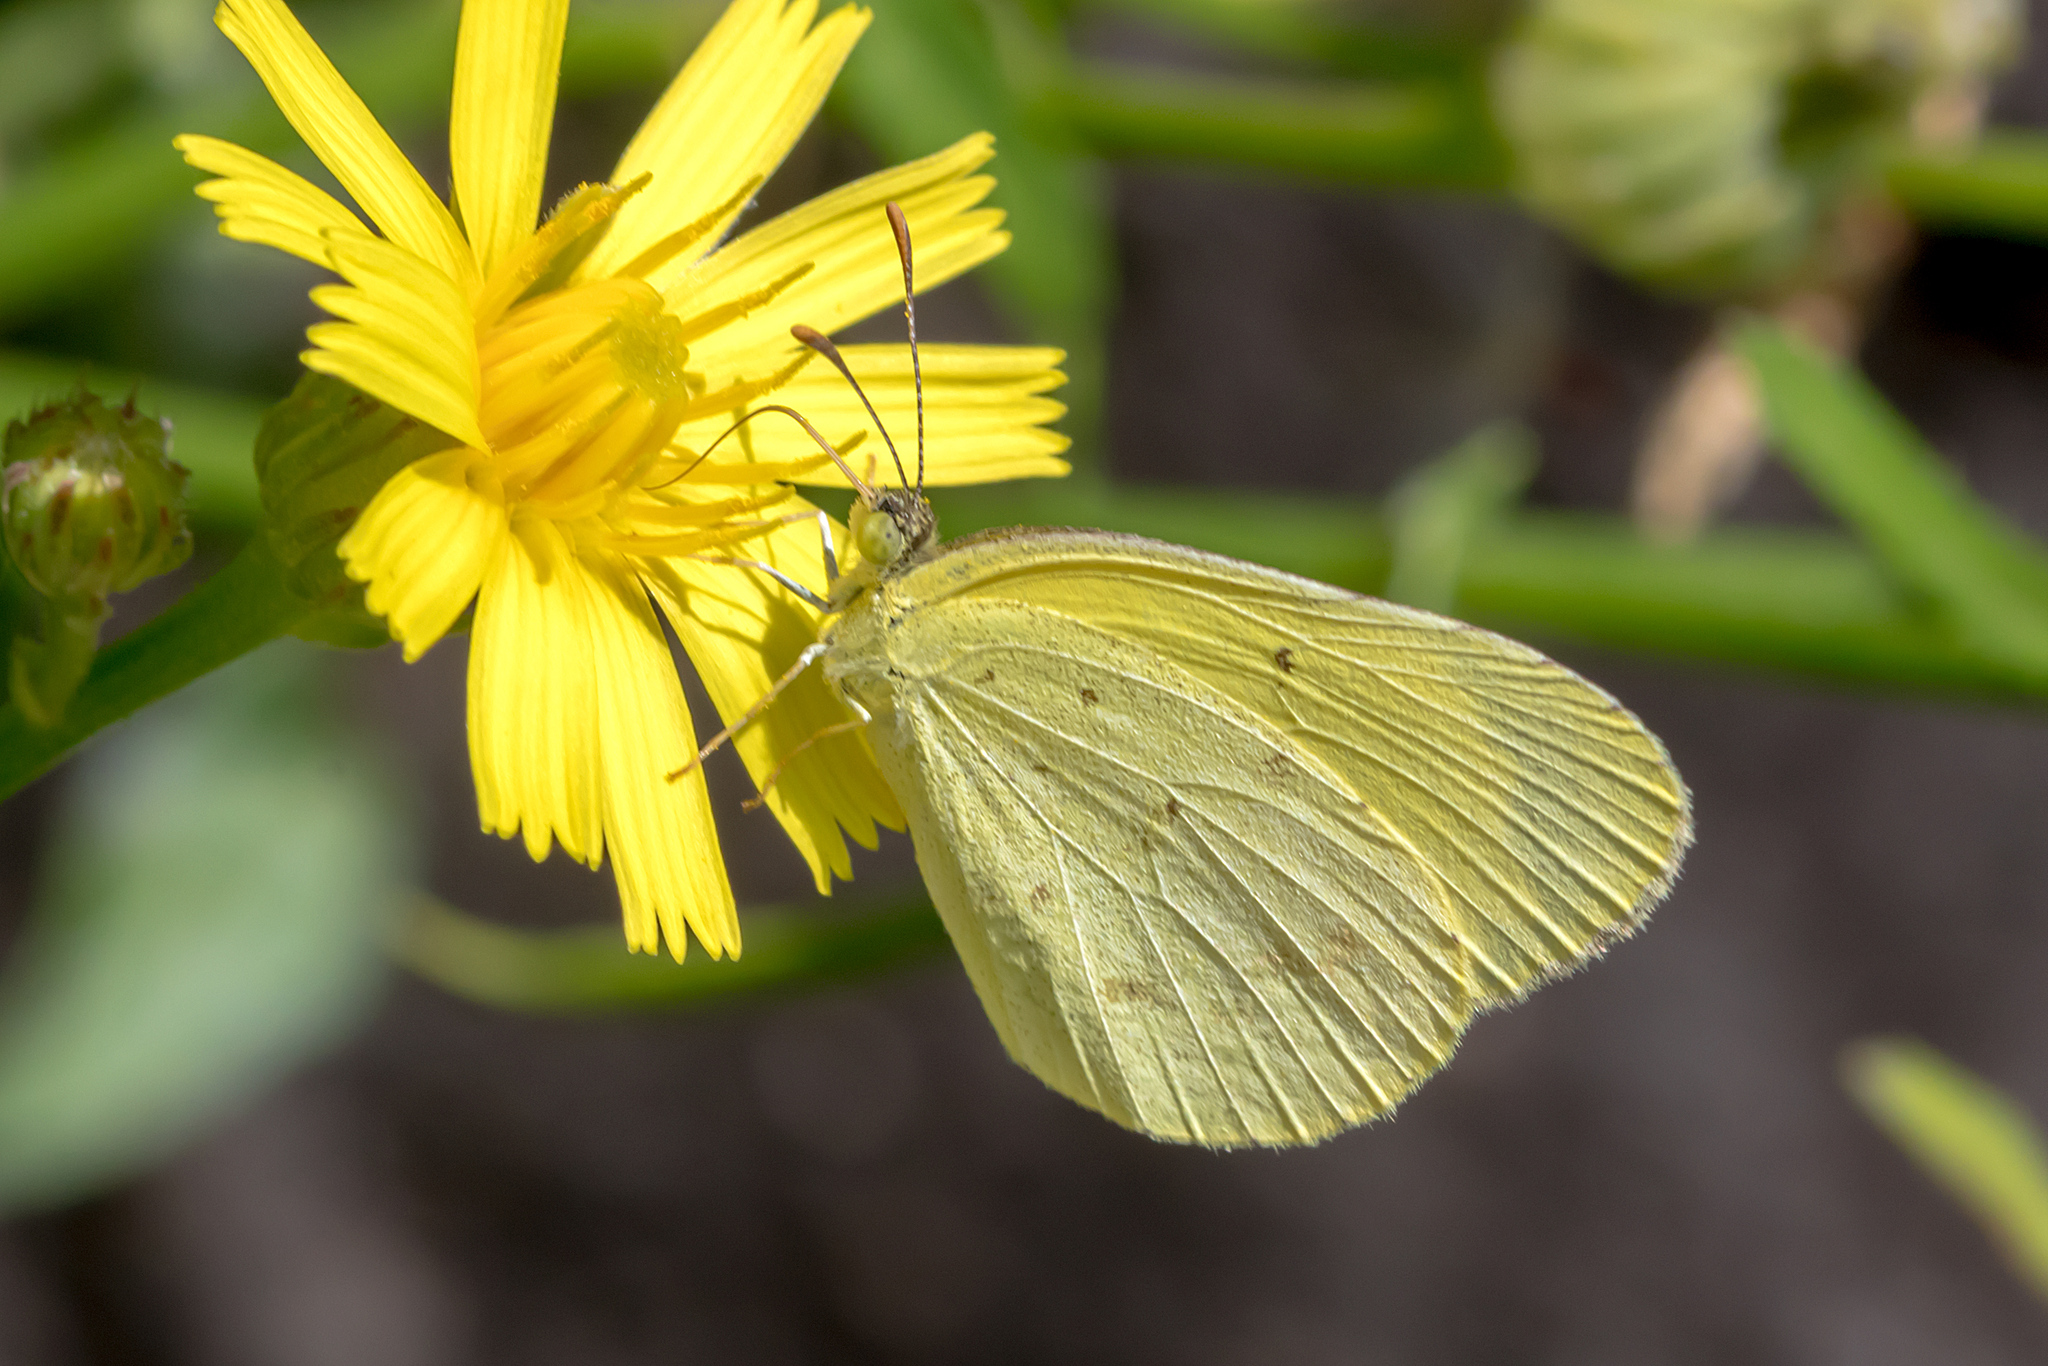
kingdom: Animalia
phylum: Arthropoda
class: Insecta
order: Lepidoptera
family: Pieridae
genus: Eurema
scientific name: Eurema smilax
